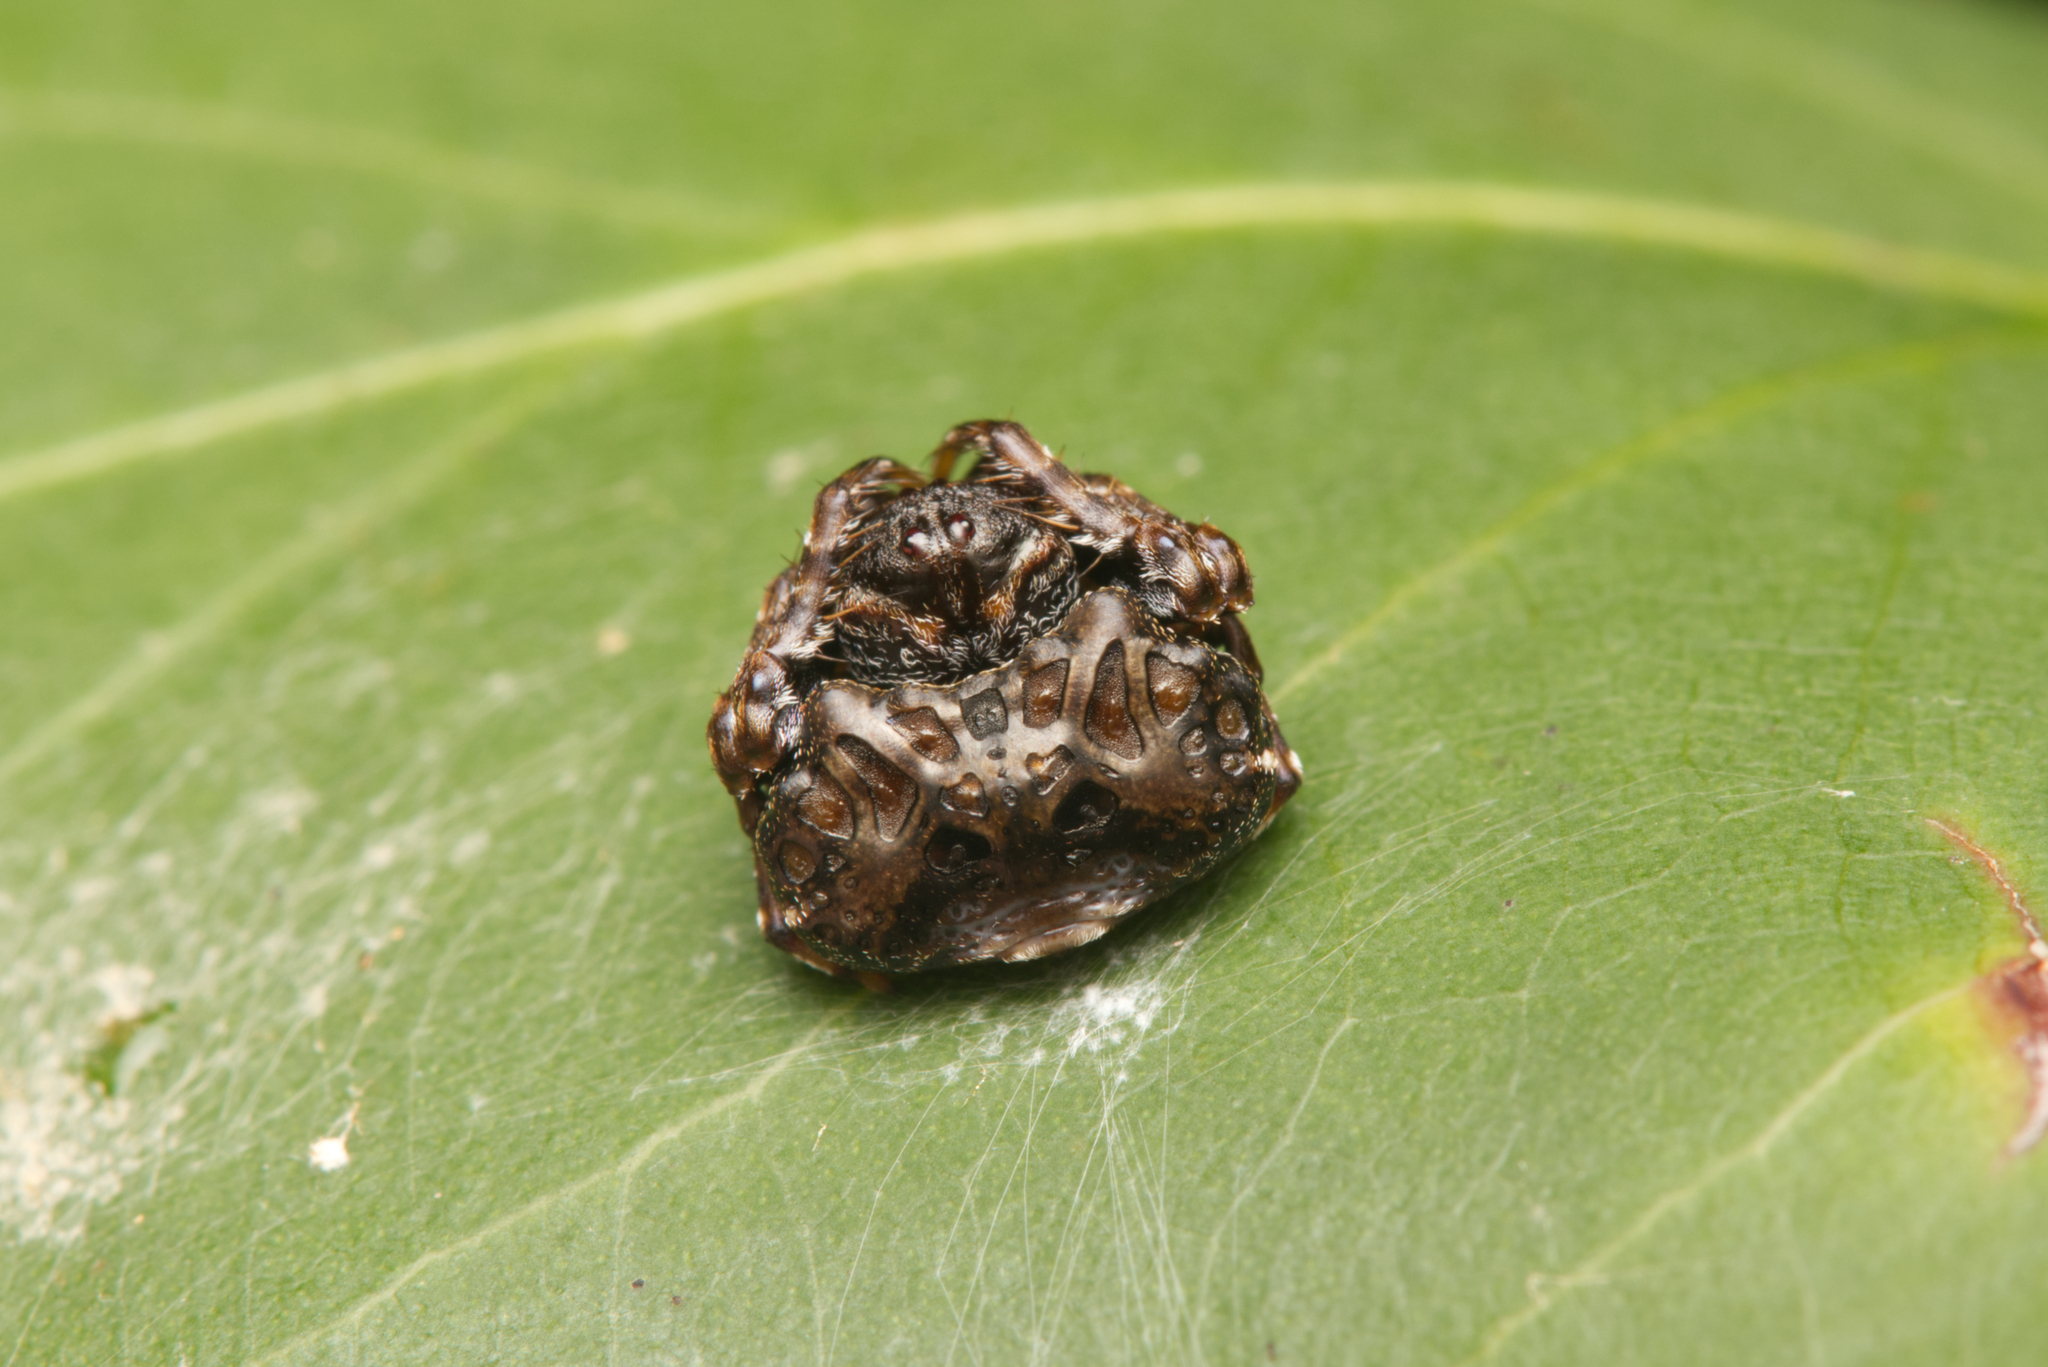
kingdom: Animalia
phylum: Arthropoda
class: Arachnida
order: Araneae
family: Arkyidae
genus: Arkys
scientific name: Arkys curtulus
